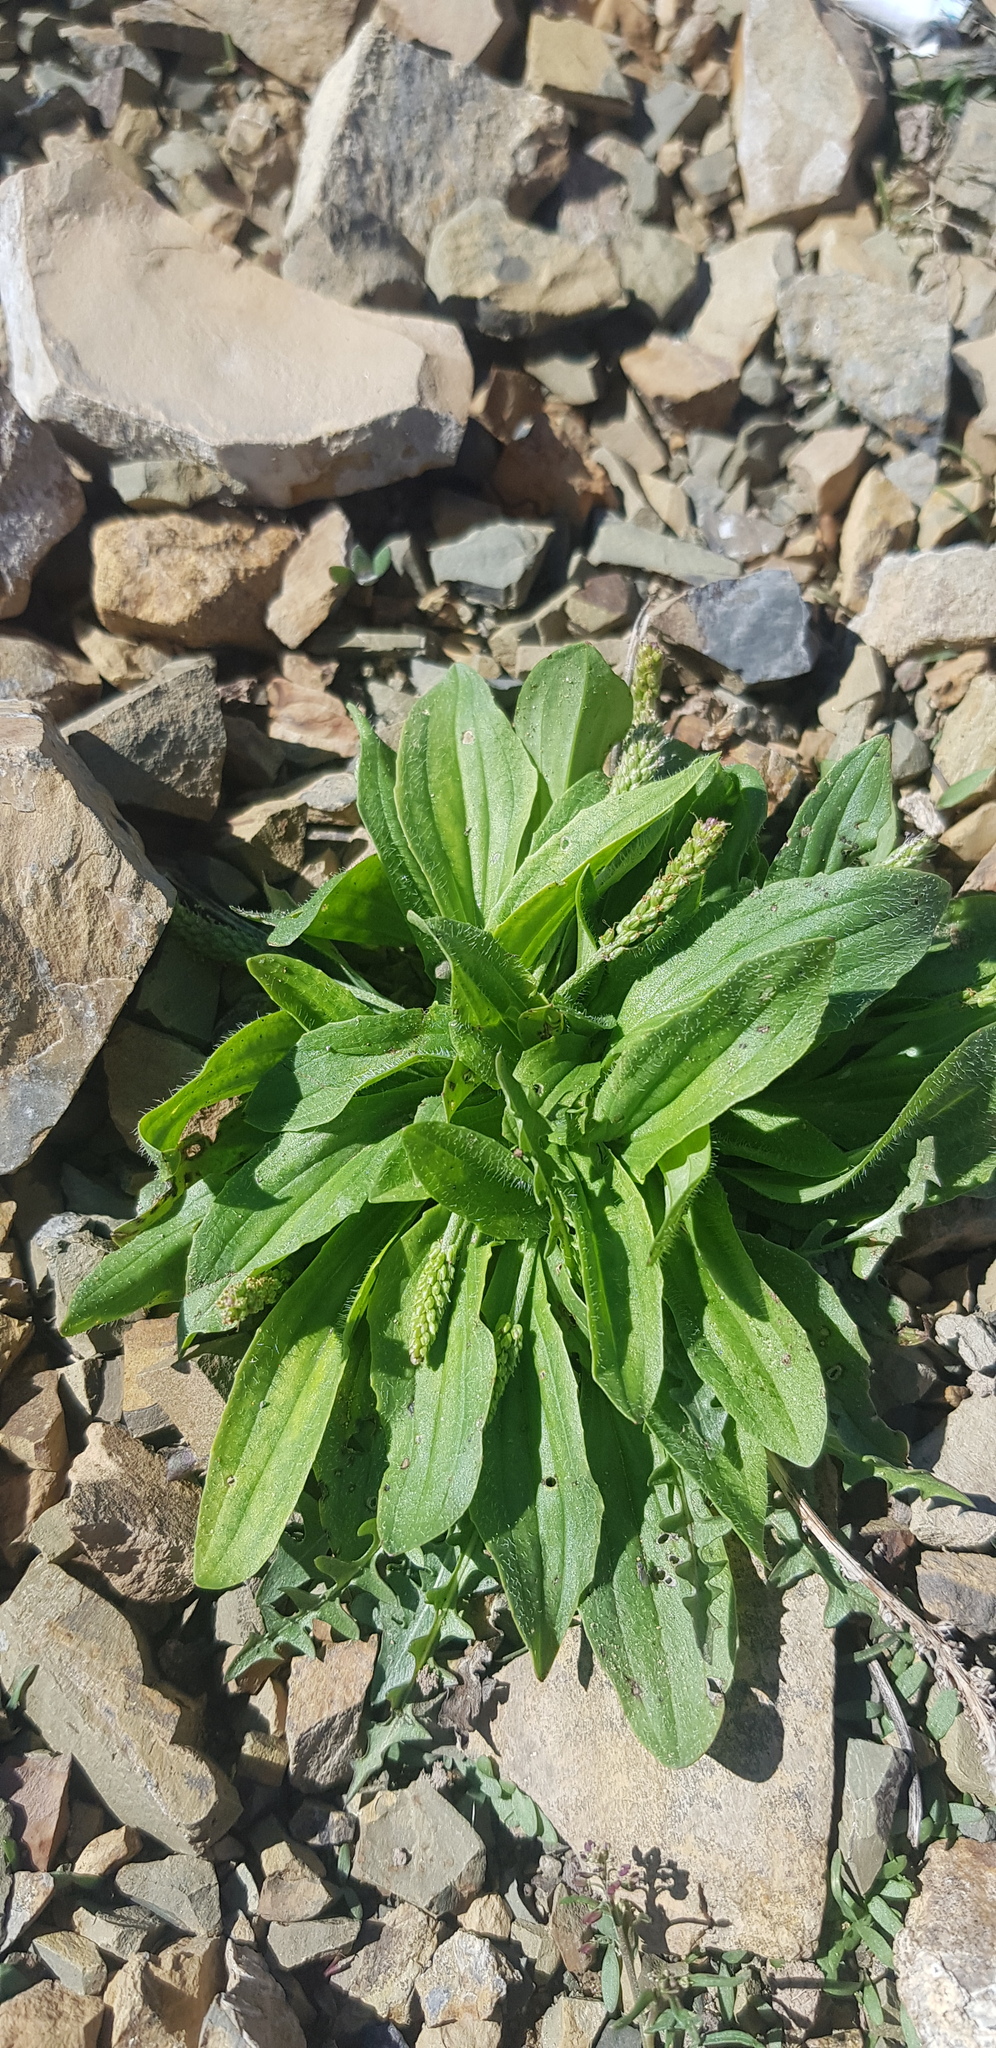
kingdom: Plantae
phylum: Tracheophyta
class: Magnoliopsida
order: Lamiales
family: Plantaginaceae
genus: Plantago
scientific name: Plantago depressa
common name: Depressed plantain
